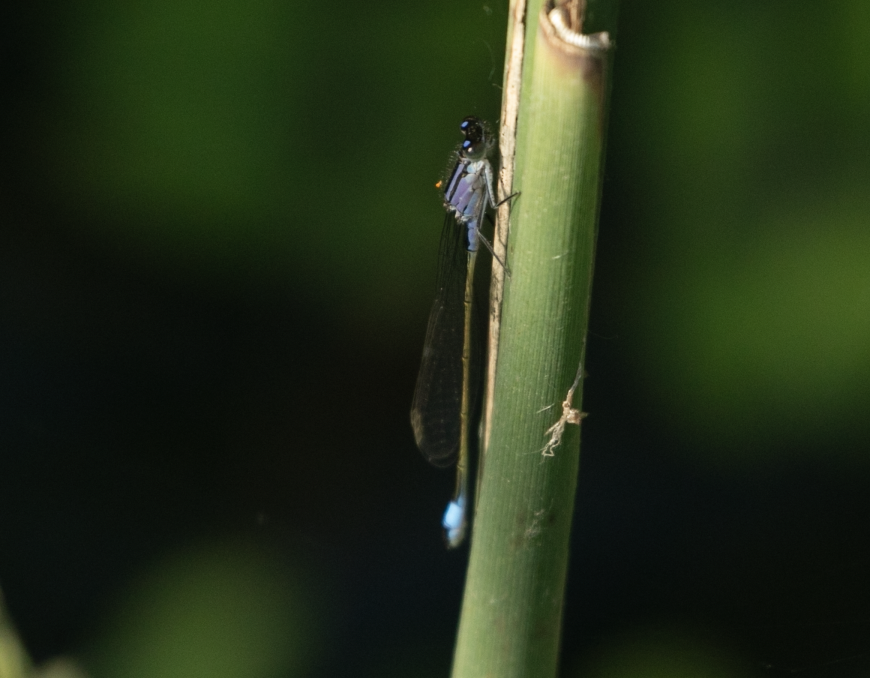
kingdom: Animalia
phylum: Arthropoda
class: Insecta
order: Odonata
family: Coenagrionidae
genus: Ischnura
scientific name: Ischnura elegans
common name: Blue-tailed damselfly
